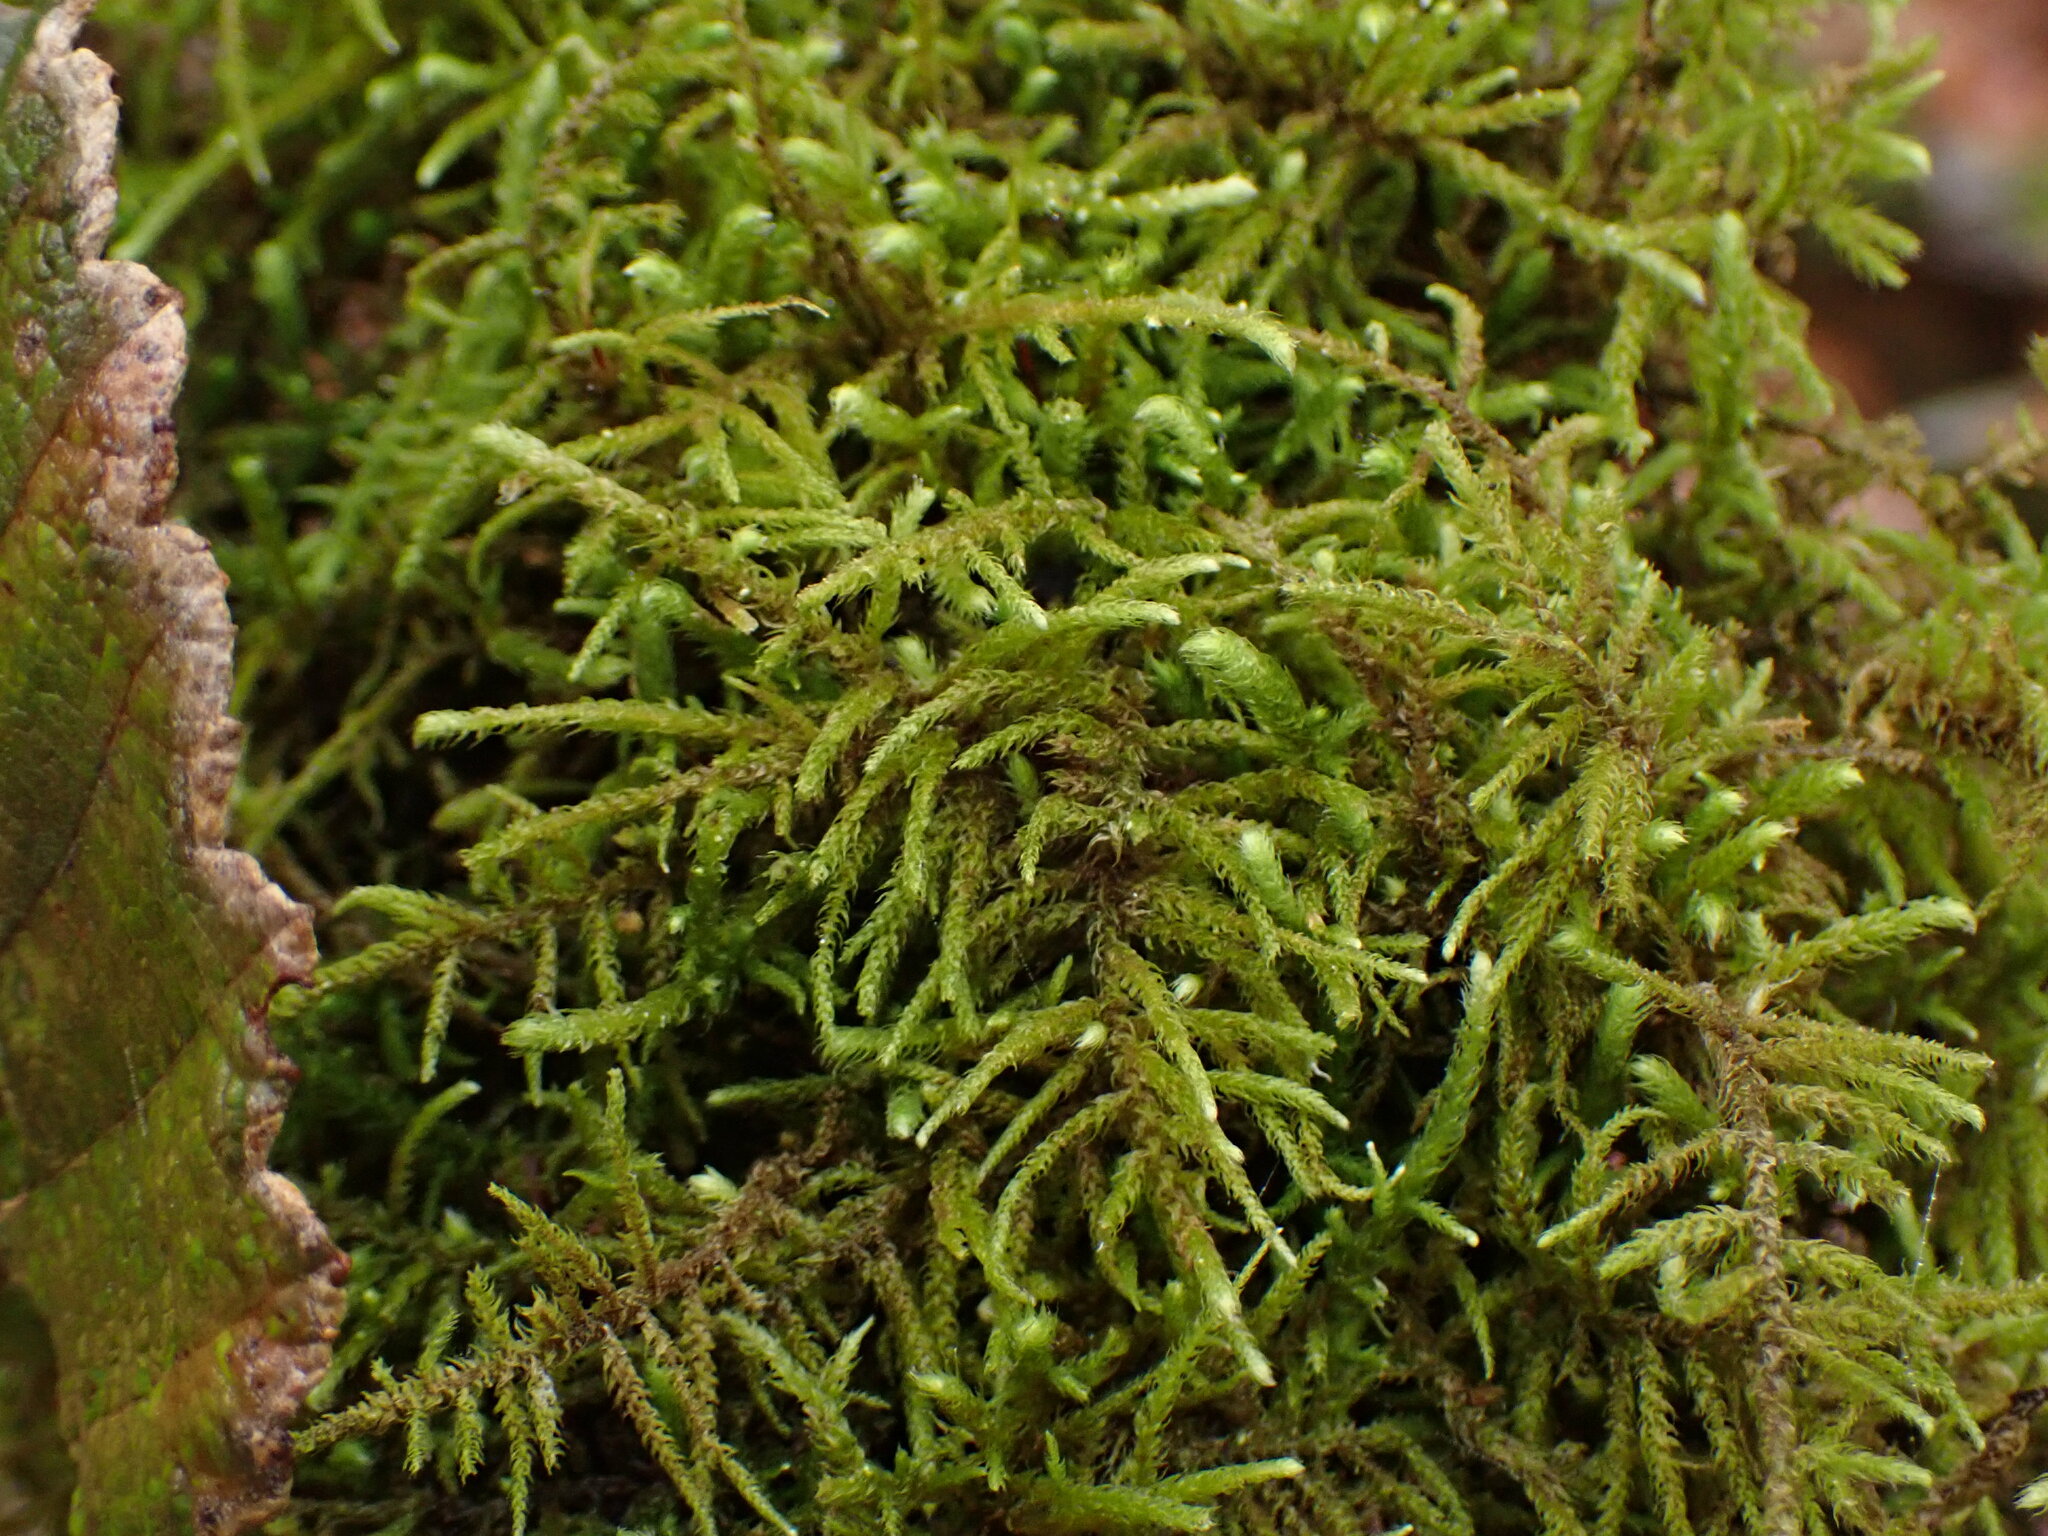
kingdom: Plantae
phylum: Bryophyta
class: Bryopsida
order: Hypnales
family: Brachytheciaceae
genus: Claopodium
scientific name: Claopodium crispifolium
